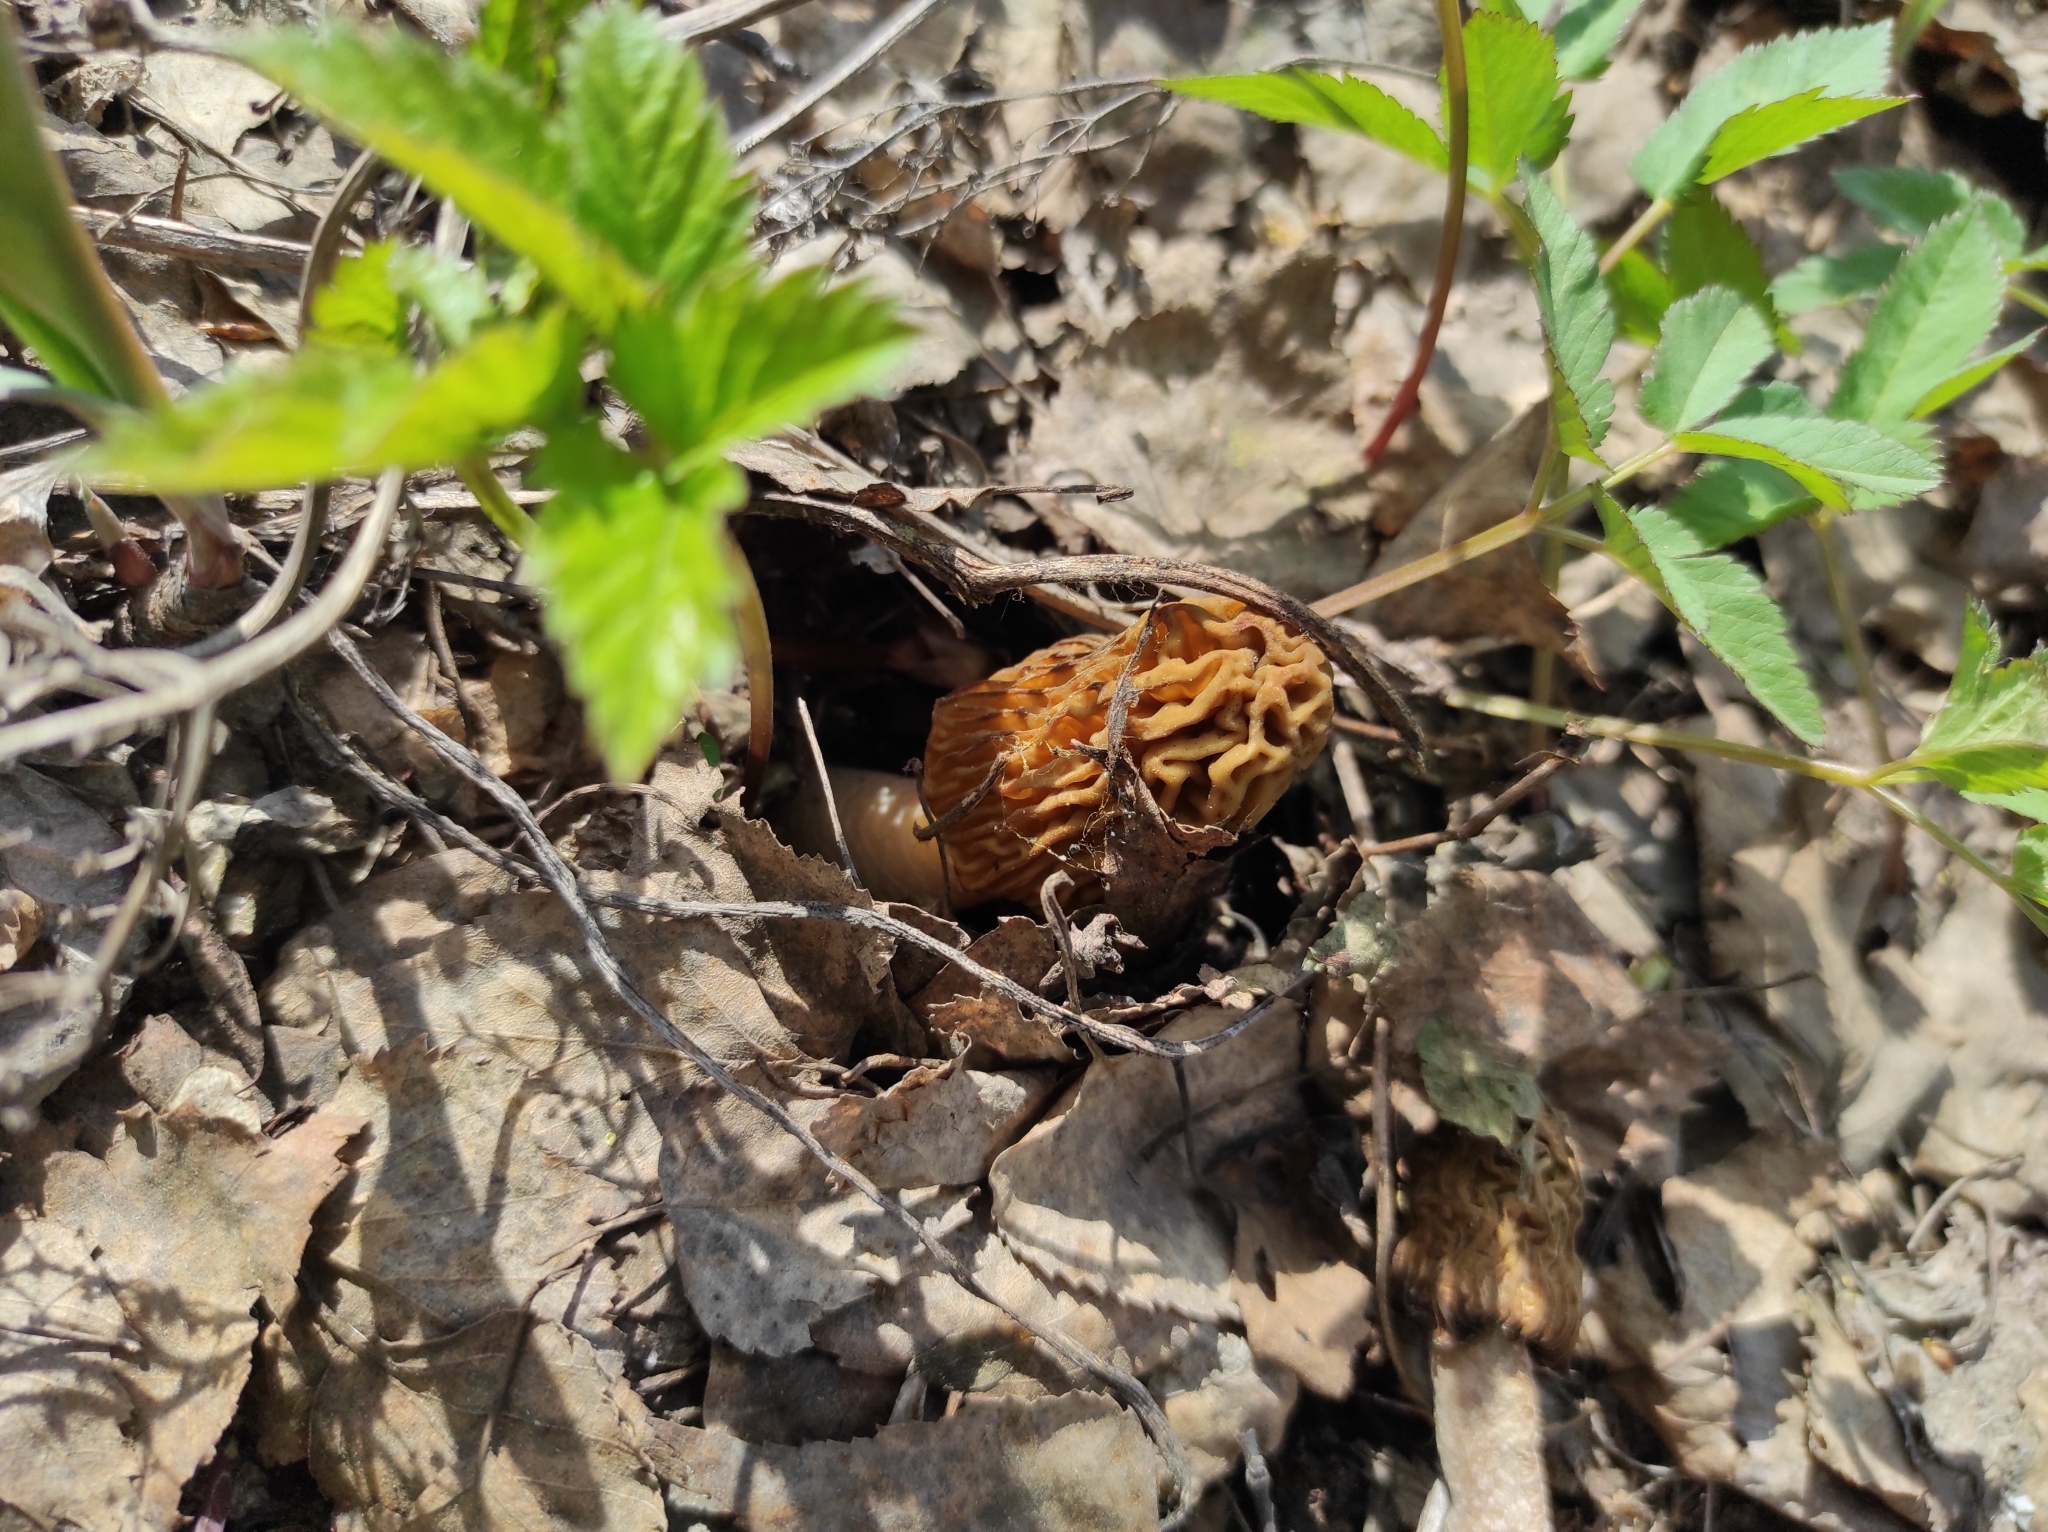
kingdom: Fungi
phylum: Ascomycota
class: Pezizomycetes
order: Pezizales
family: Morchellaceae
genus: Verpa
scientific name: Verpa bohemica
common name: Wrinkled thimble morel
